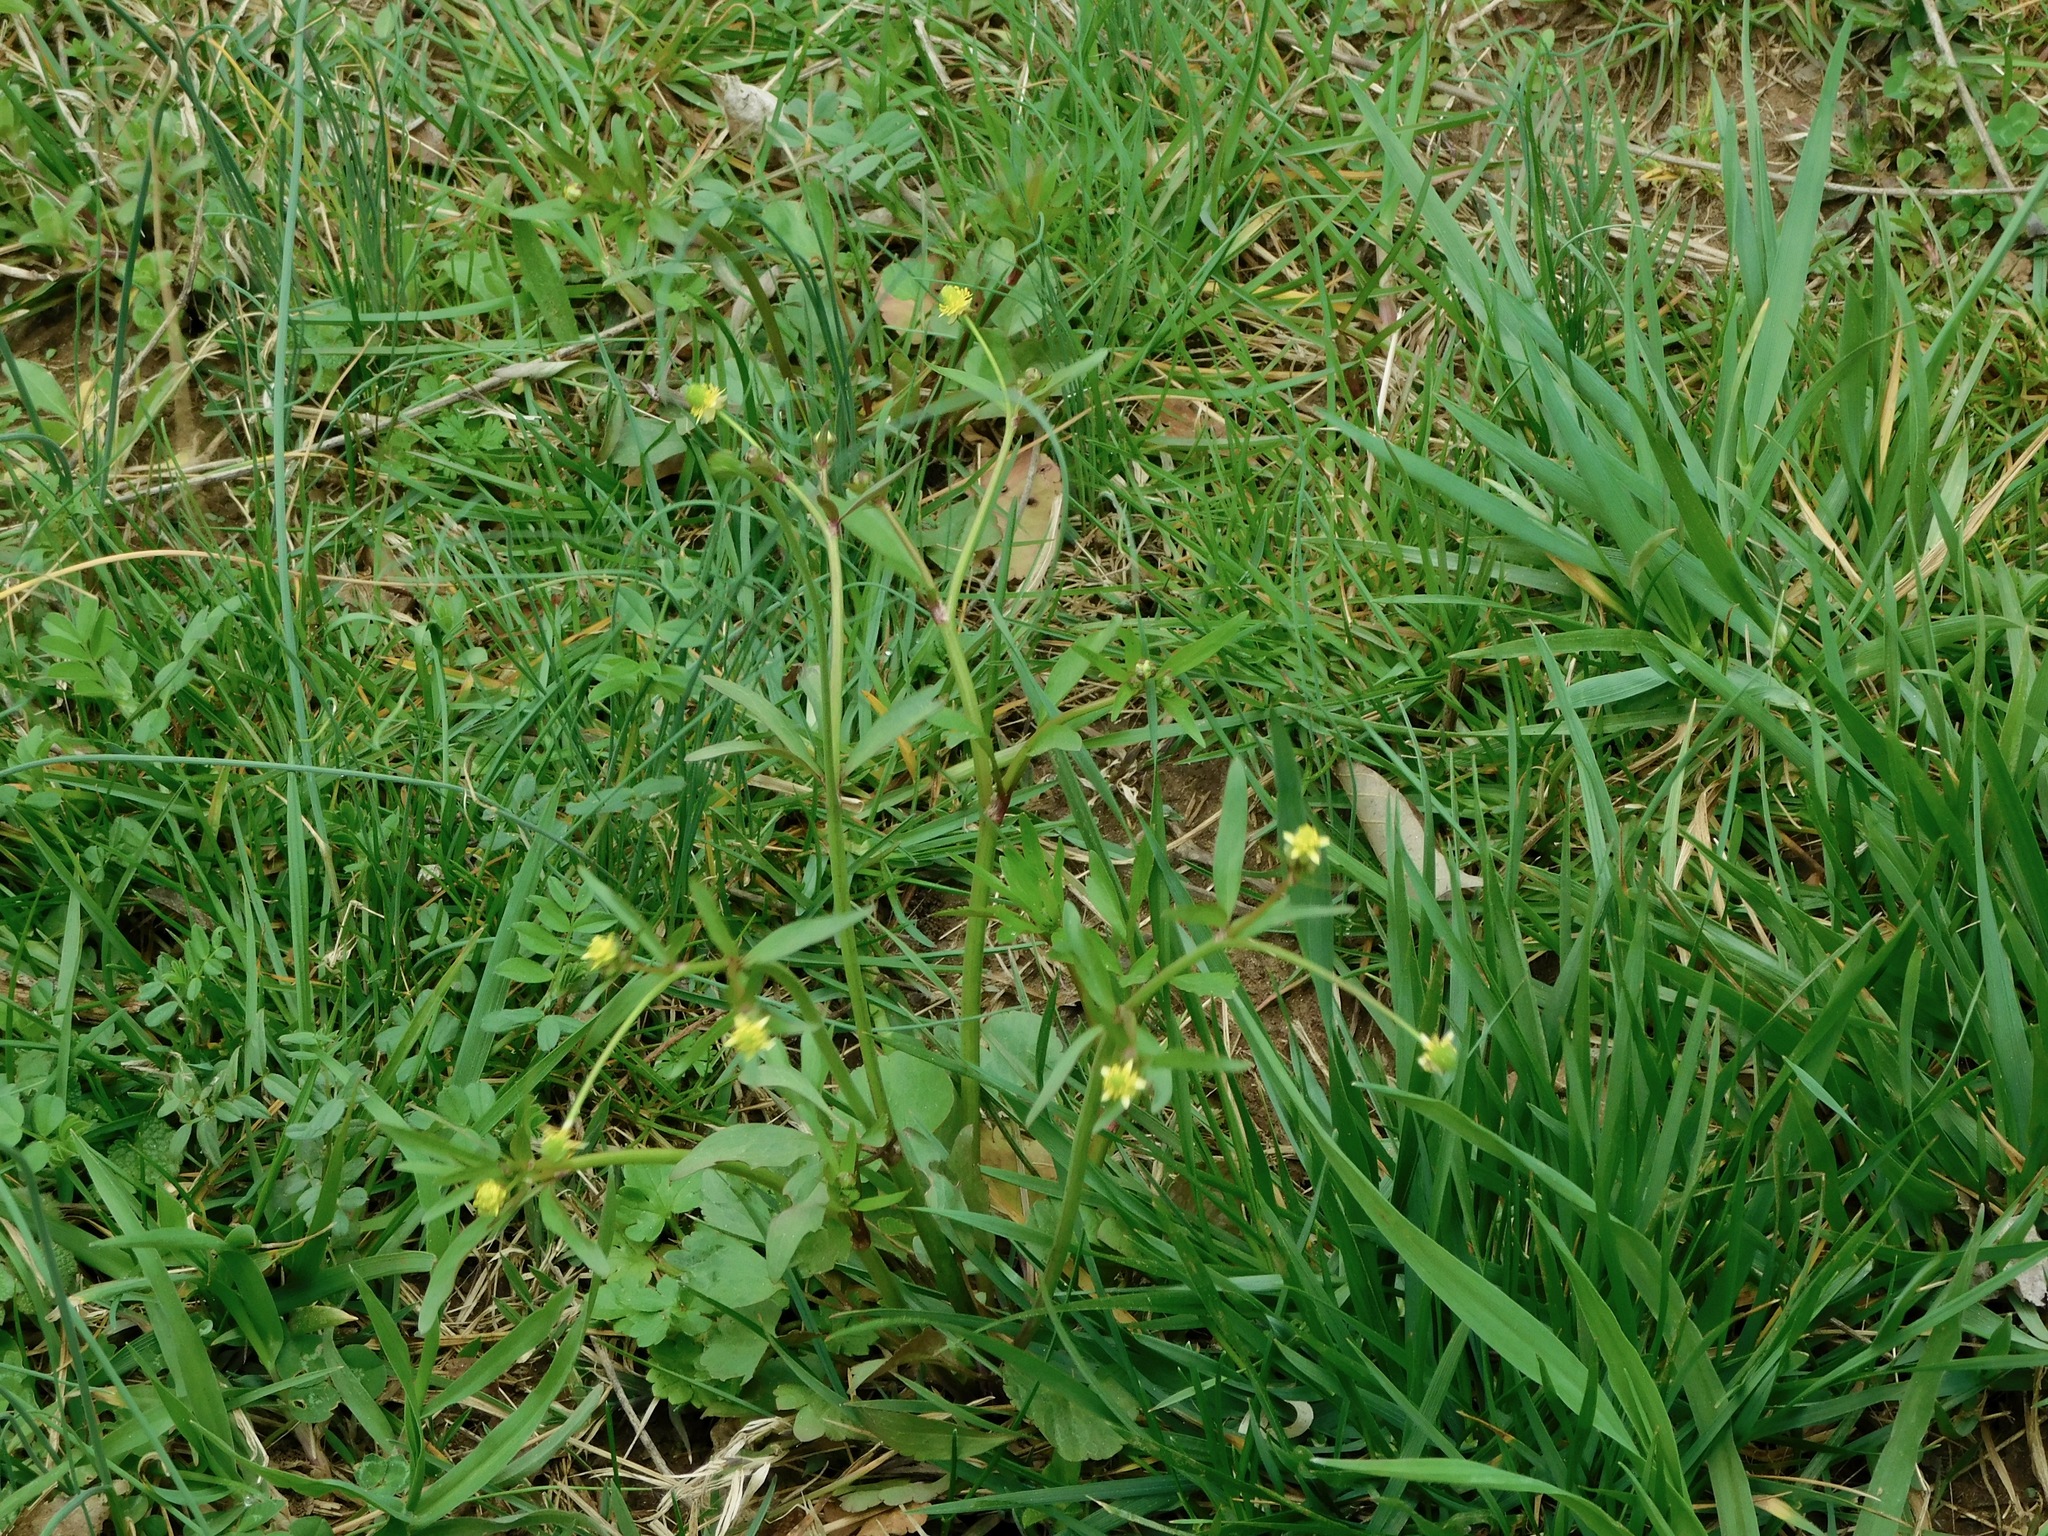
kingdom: Plantae
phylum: Tracheophyta
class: Magnoliopsida
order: Ranunculales
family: Ranunculaceae
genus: Ranunculus
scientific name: Ranunculus abortivus
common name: Early wood buttercup
